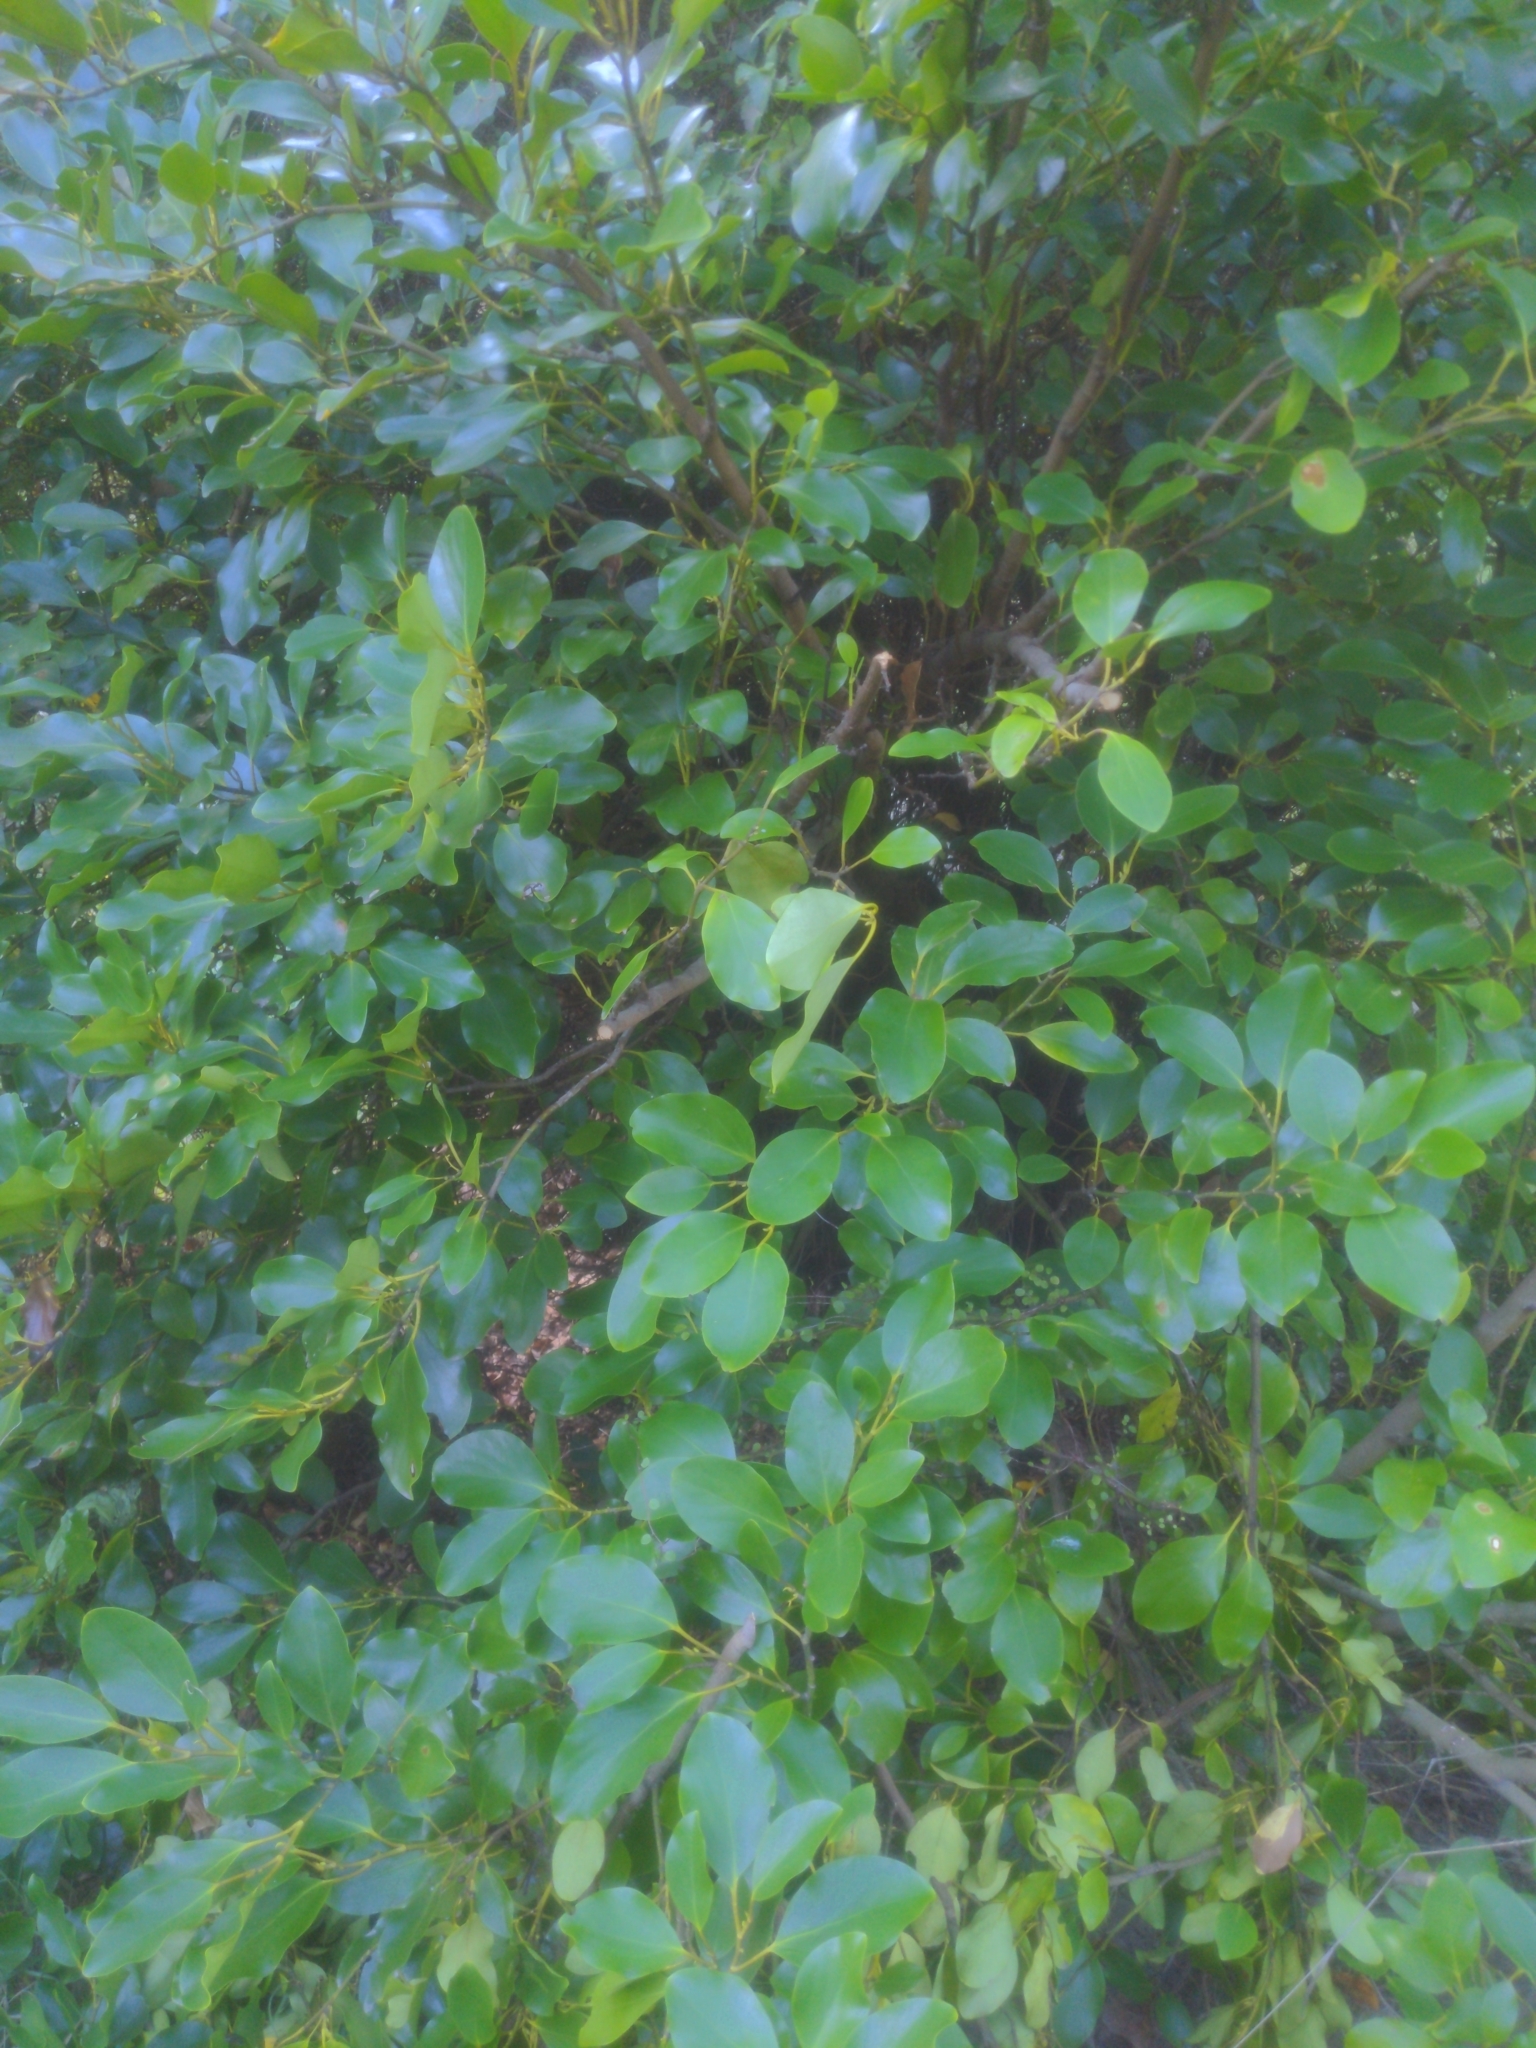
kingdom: Plantae
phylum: Tracheophyta
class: Magnoliopsida
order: Apiales
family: Griseliniaceae
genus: Griselinia
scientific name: Griselinia littoralis
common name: New zealand broadleaf
